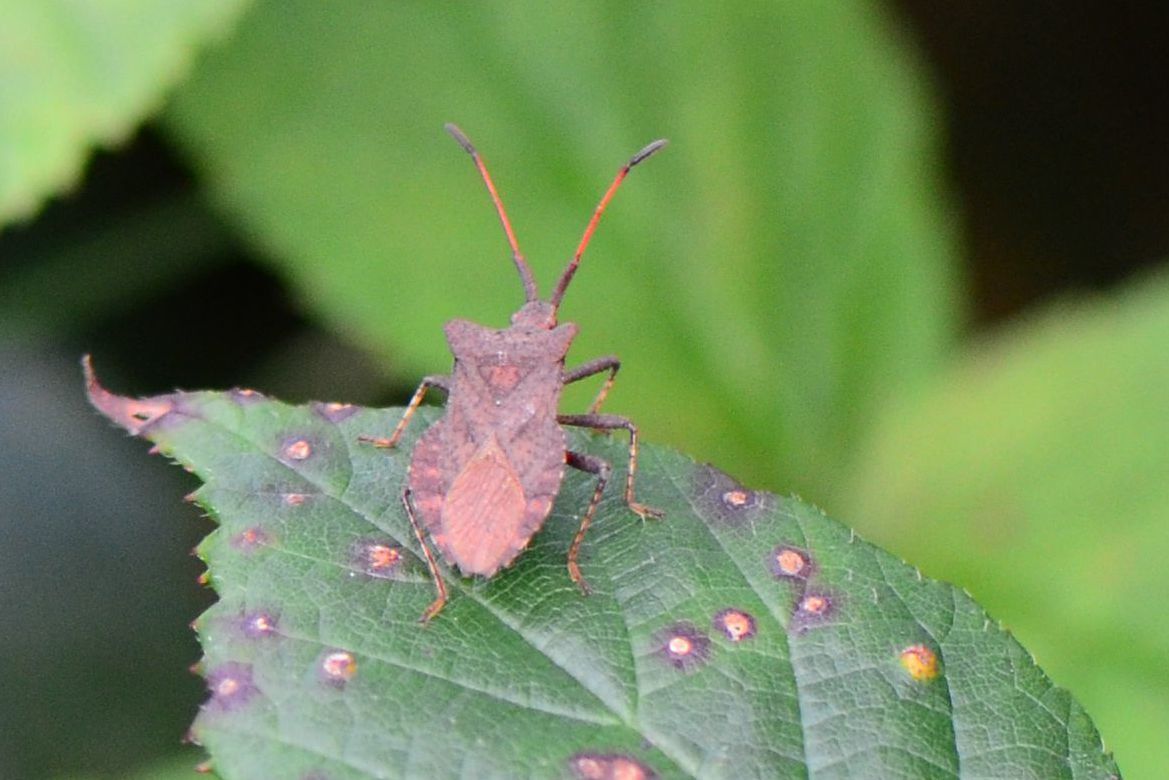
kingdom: Animalia
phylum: Arthropoda
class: Insecta
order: Hemiptera
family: Coreidae
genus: Coreus
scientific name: Coreus marginatus
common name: Dock bug
